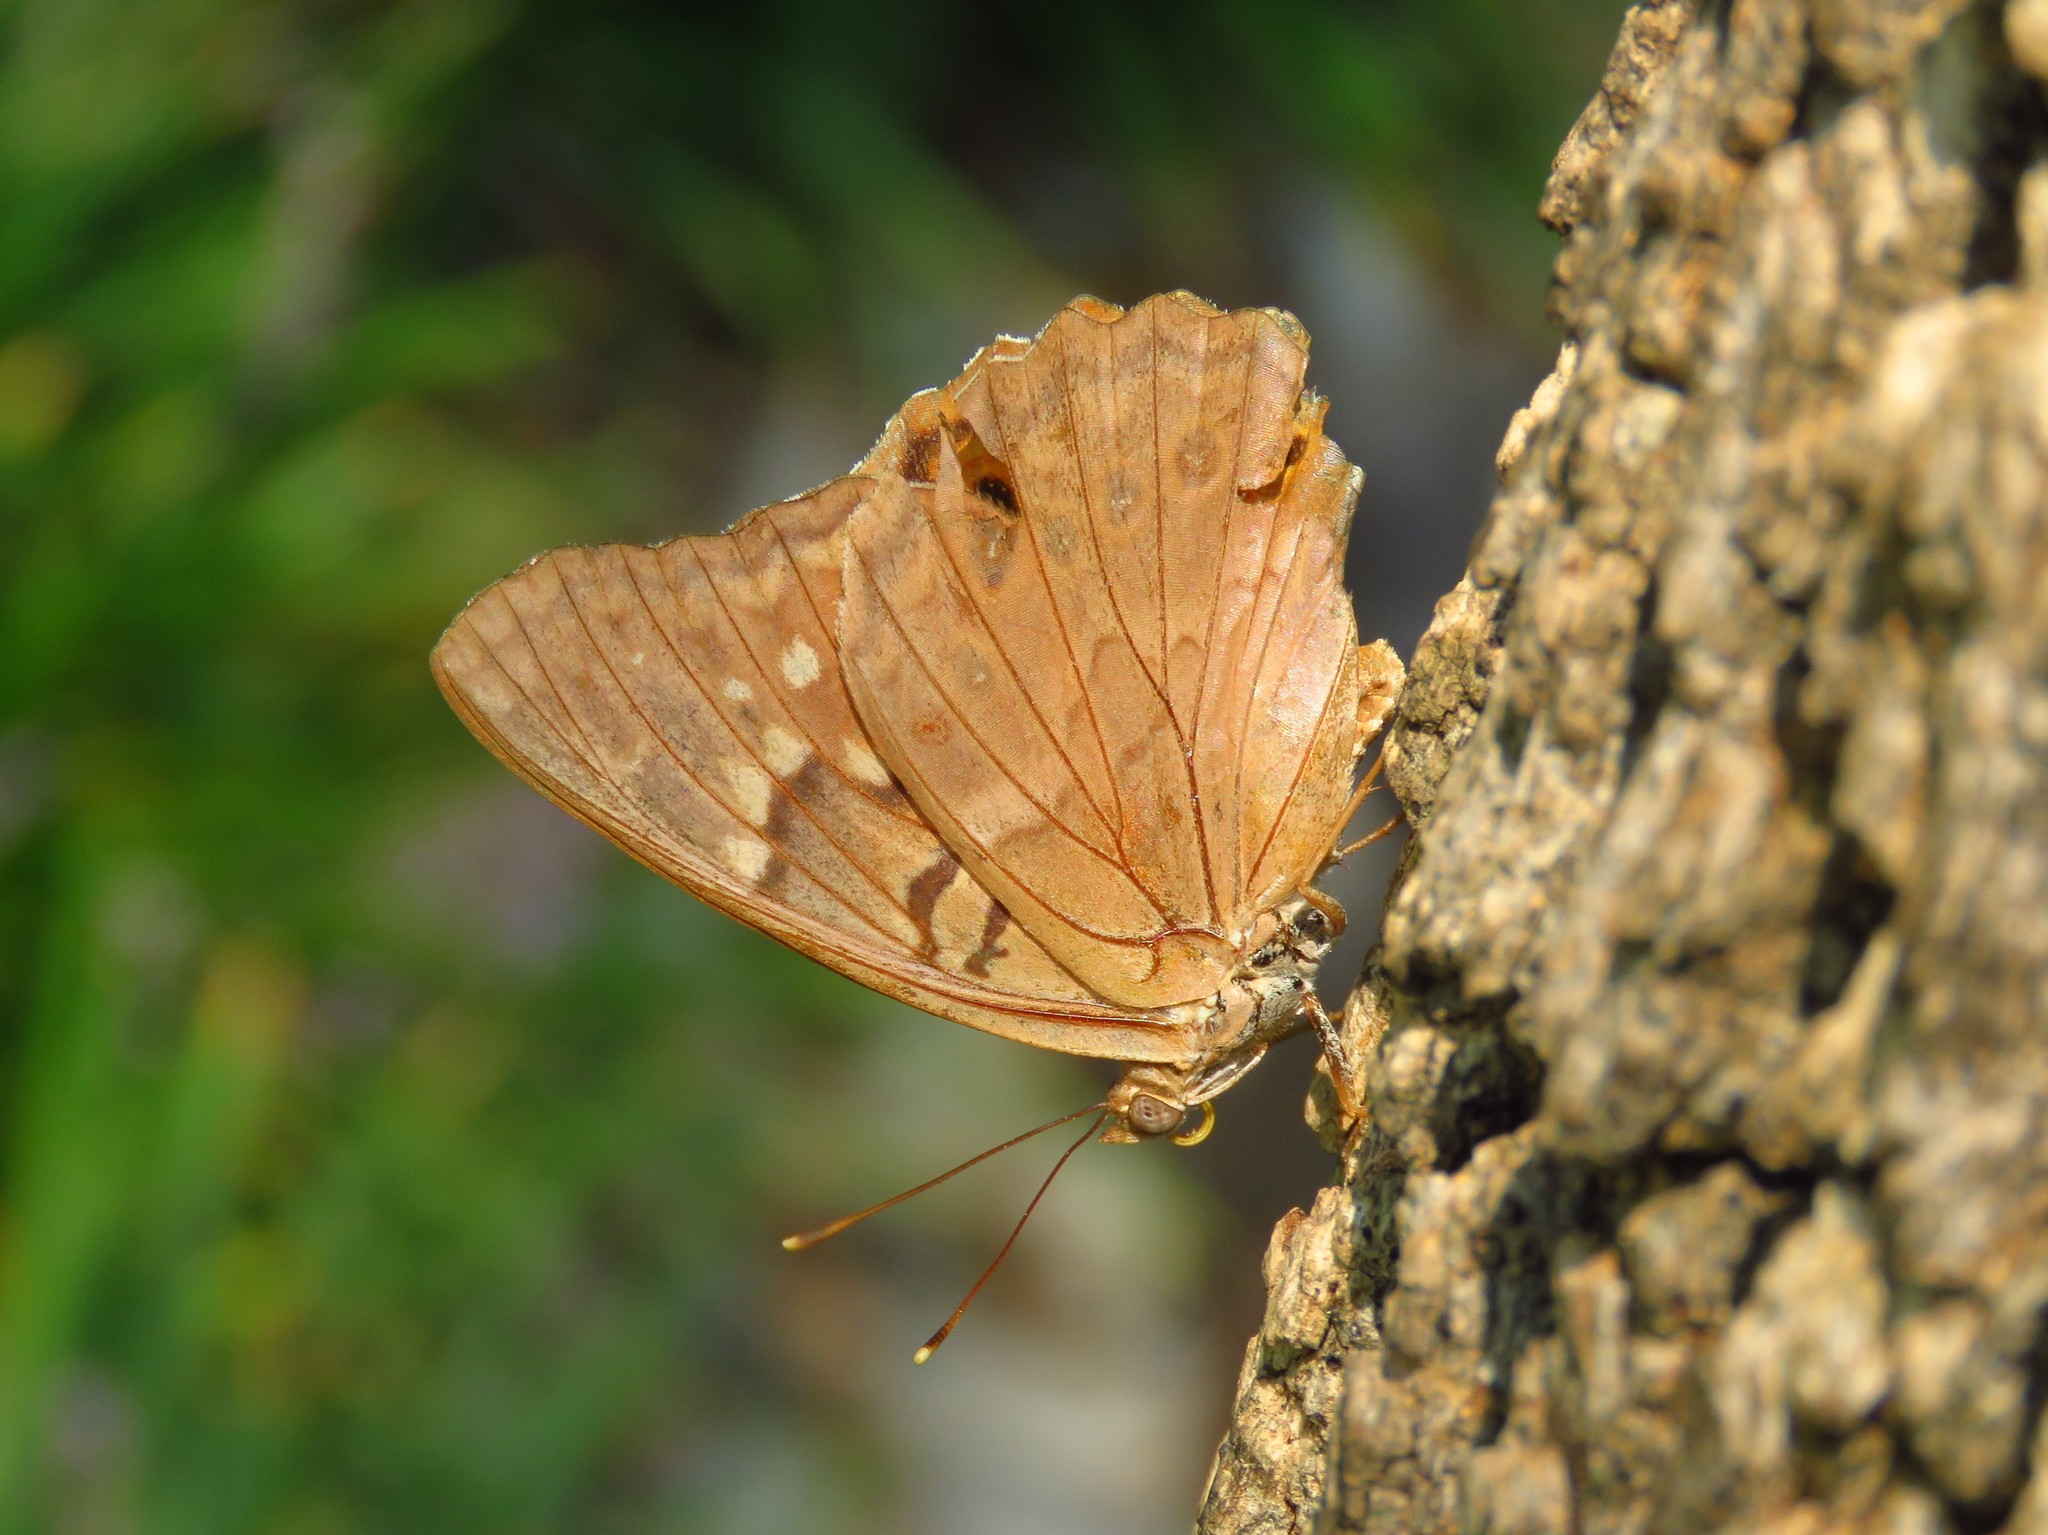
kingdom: Animalia
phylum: Arthropoda
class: Insecta
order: Lepidoptera
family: Nymphalidae
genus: Asterocampa
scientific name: Asterocampa clyton
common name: Tawny emperor
